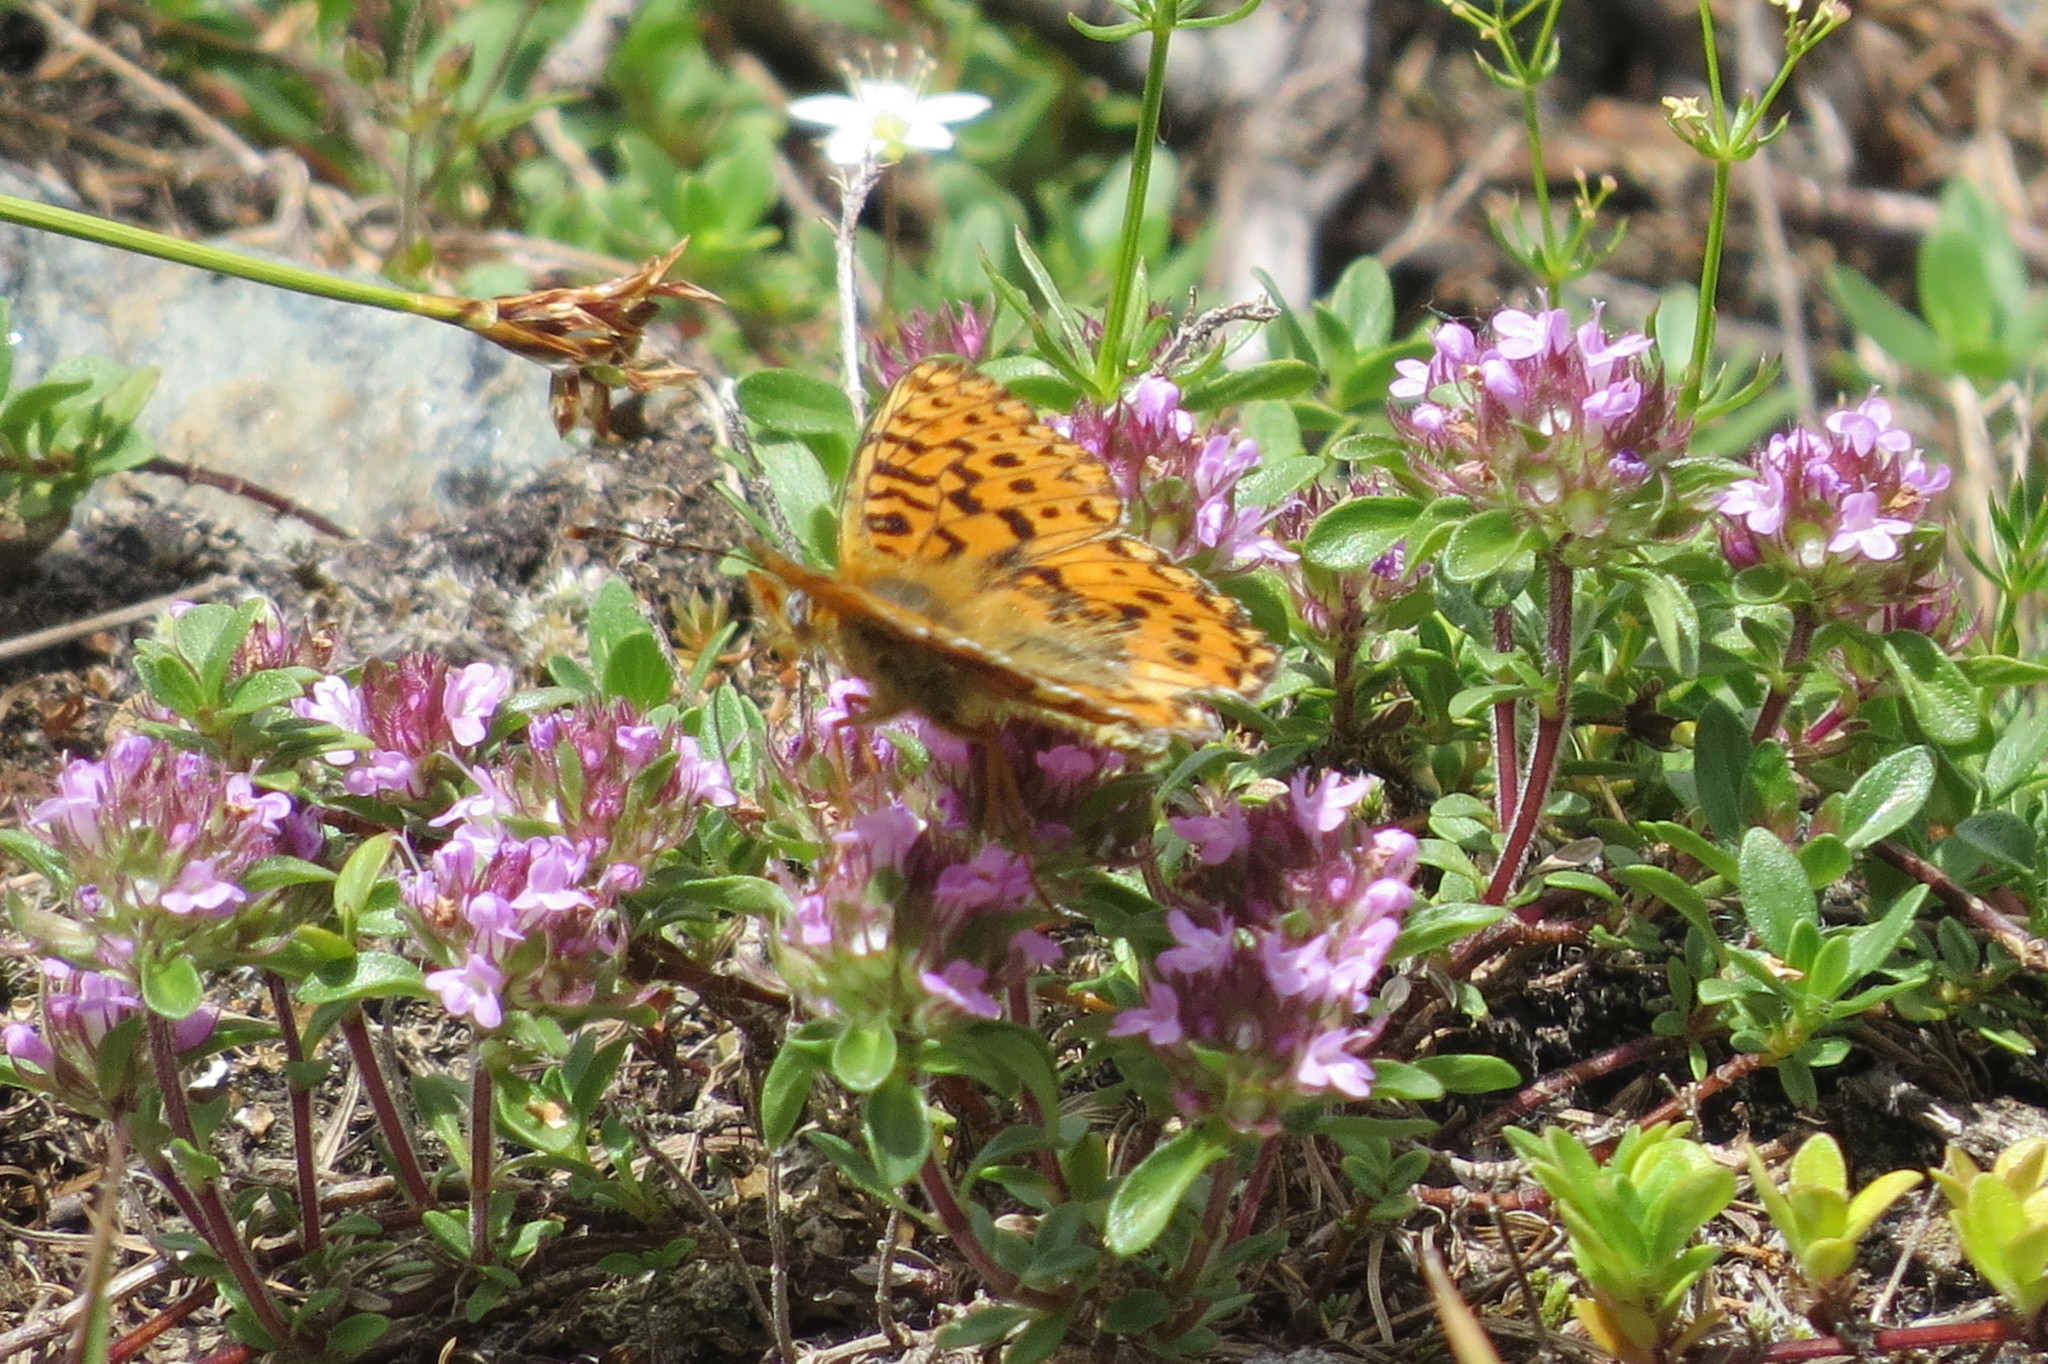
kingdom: Animalia
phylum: Arthropoda
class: Insecta
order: Lepidoptera
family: Nymphalidae
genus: Clossiana
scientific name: Clossiana euphrosyne
